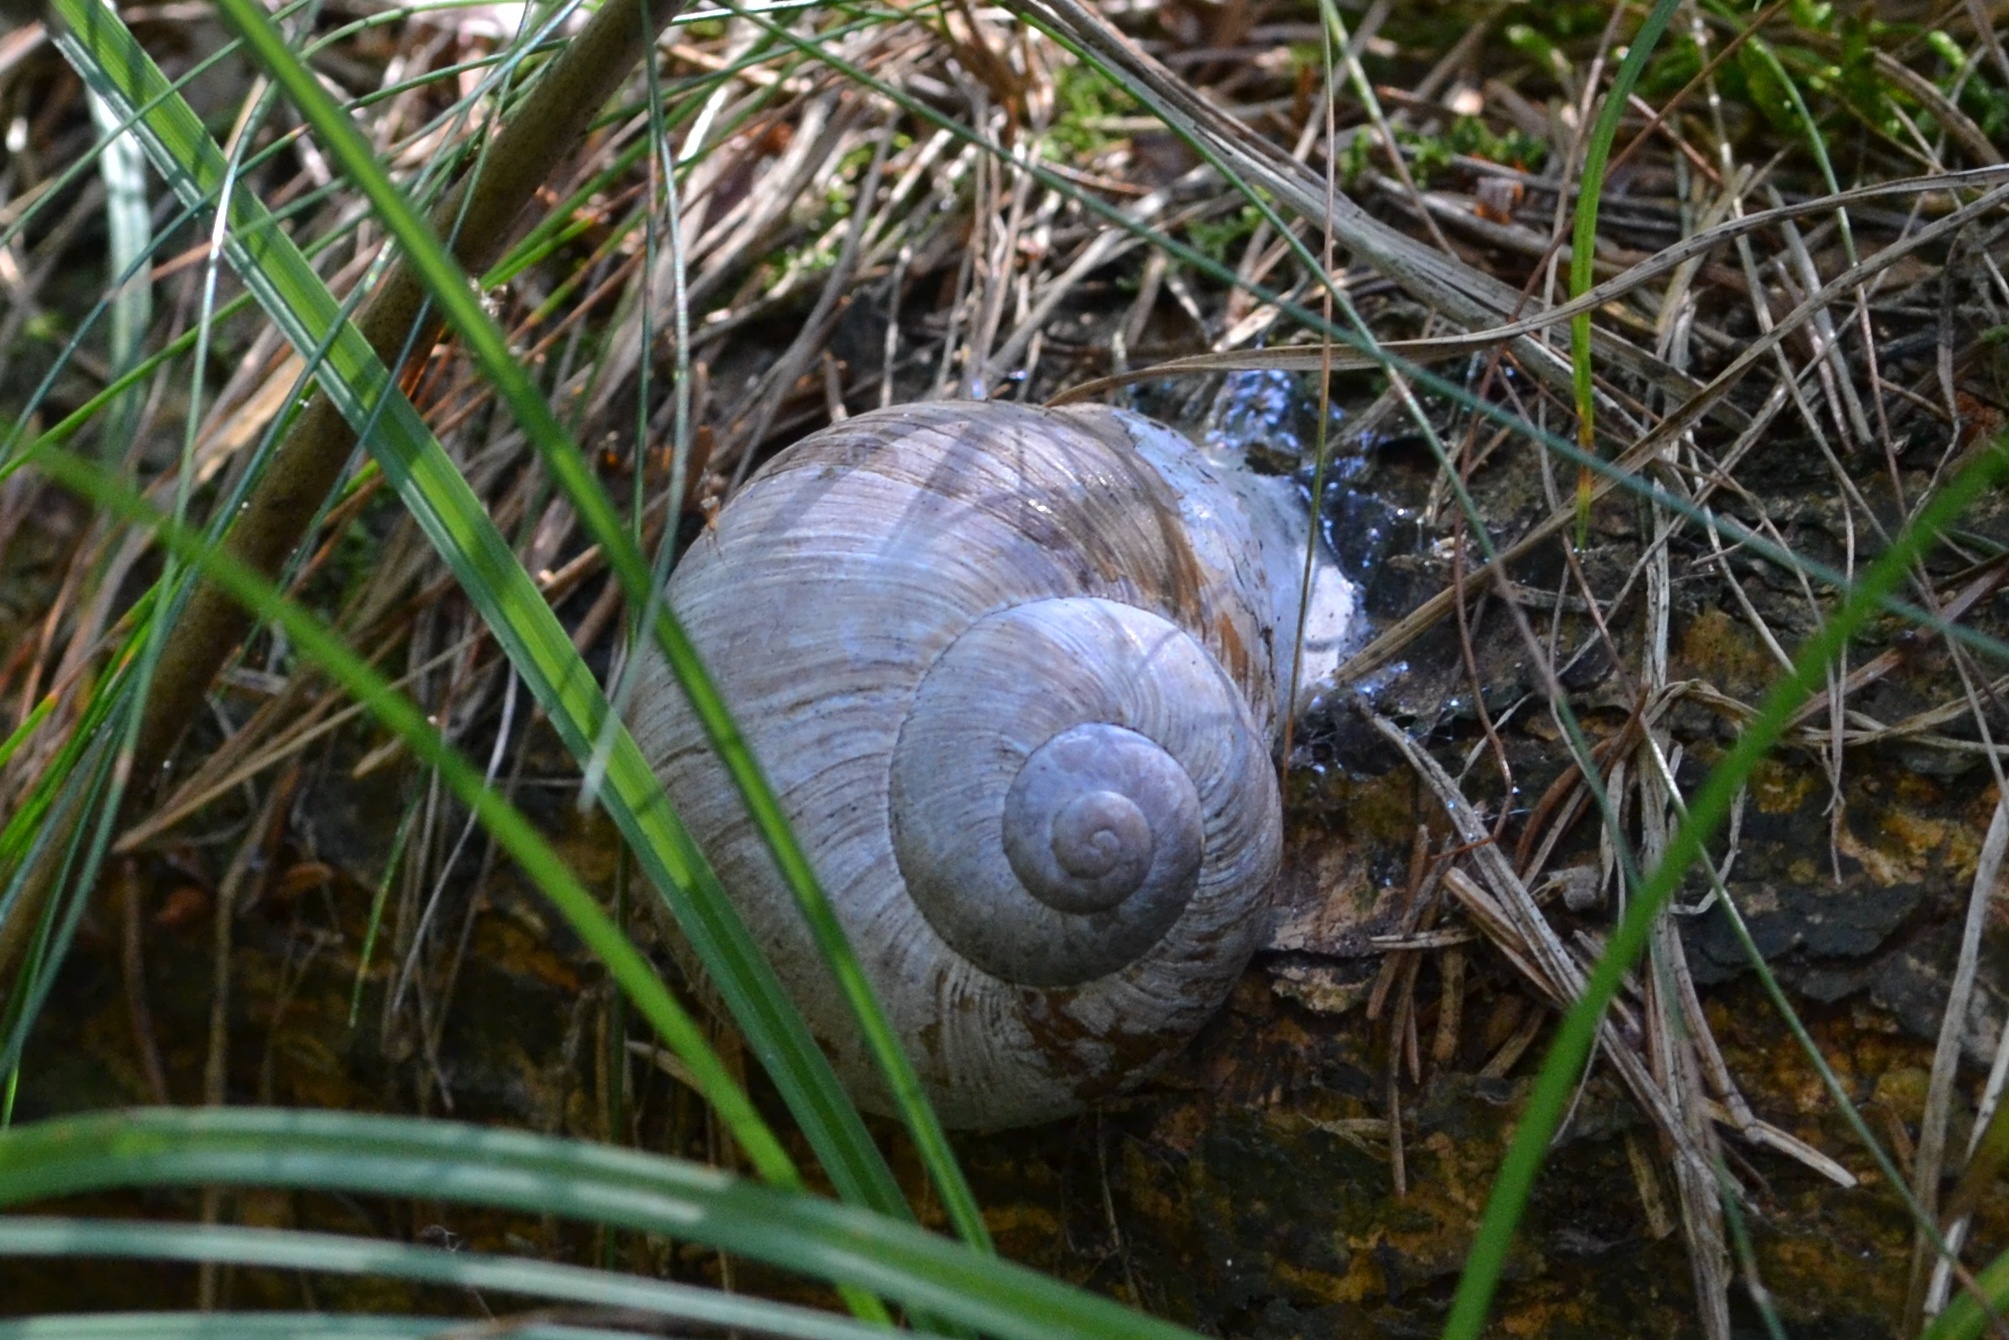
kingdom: Animalia
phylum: Mollusca
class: Gastropoda
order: Stylommatophora
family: Helicidae
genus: Helix
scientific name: Helix pomatia
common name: Roman snail
